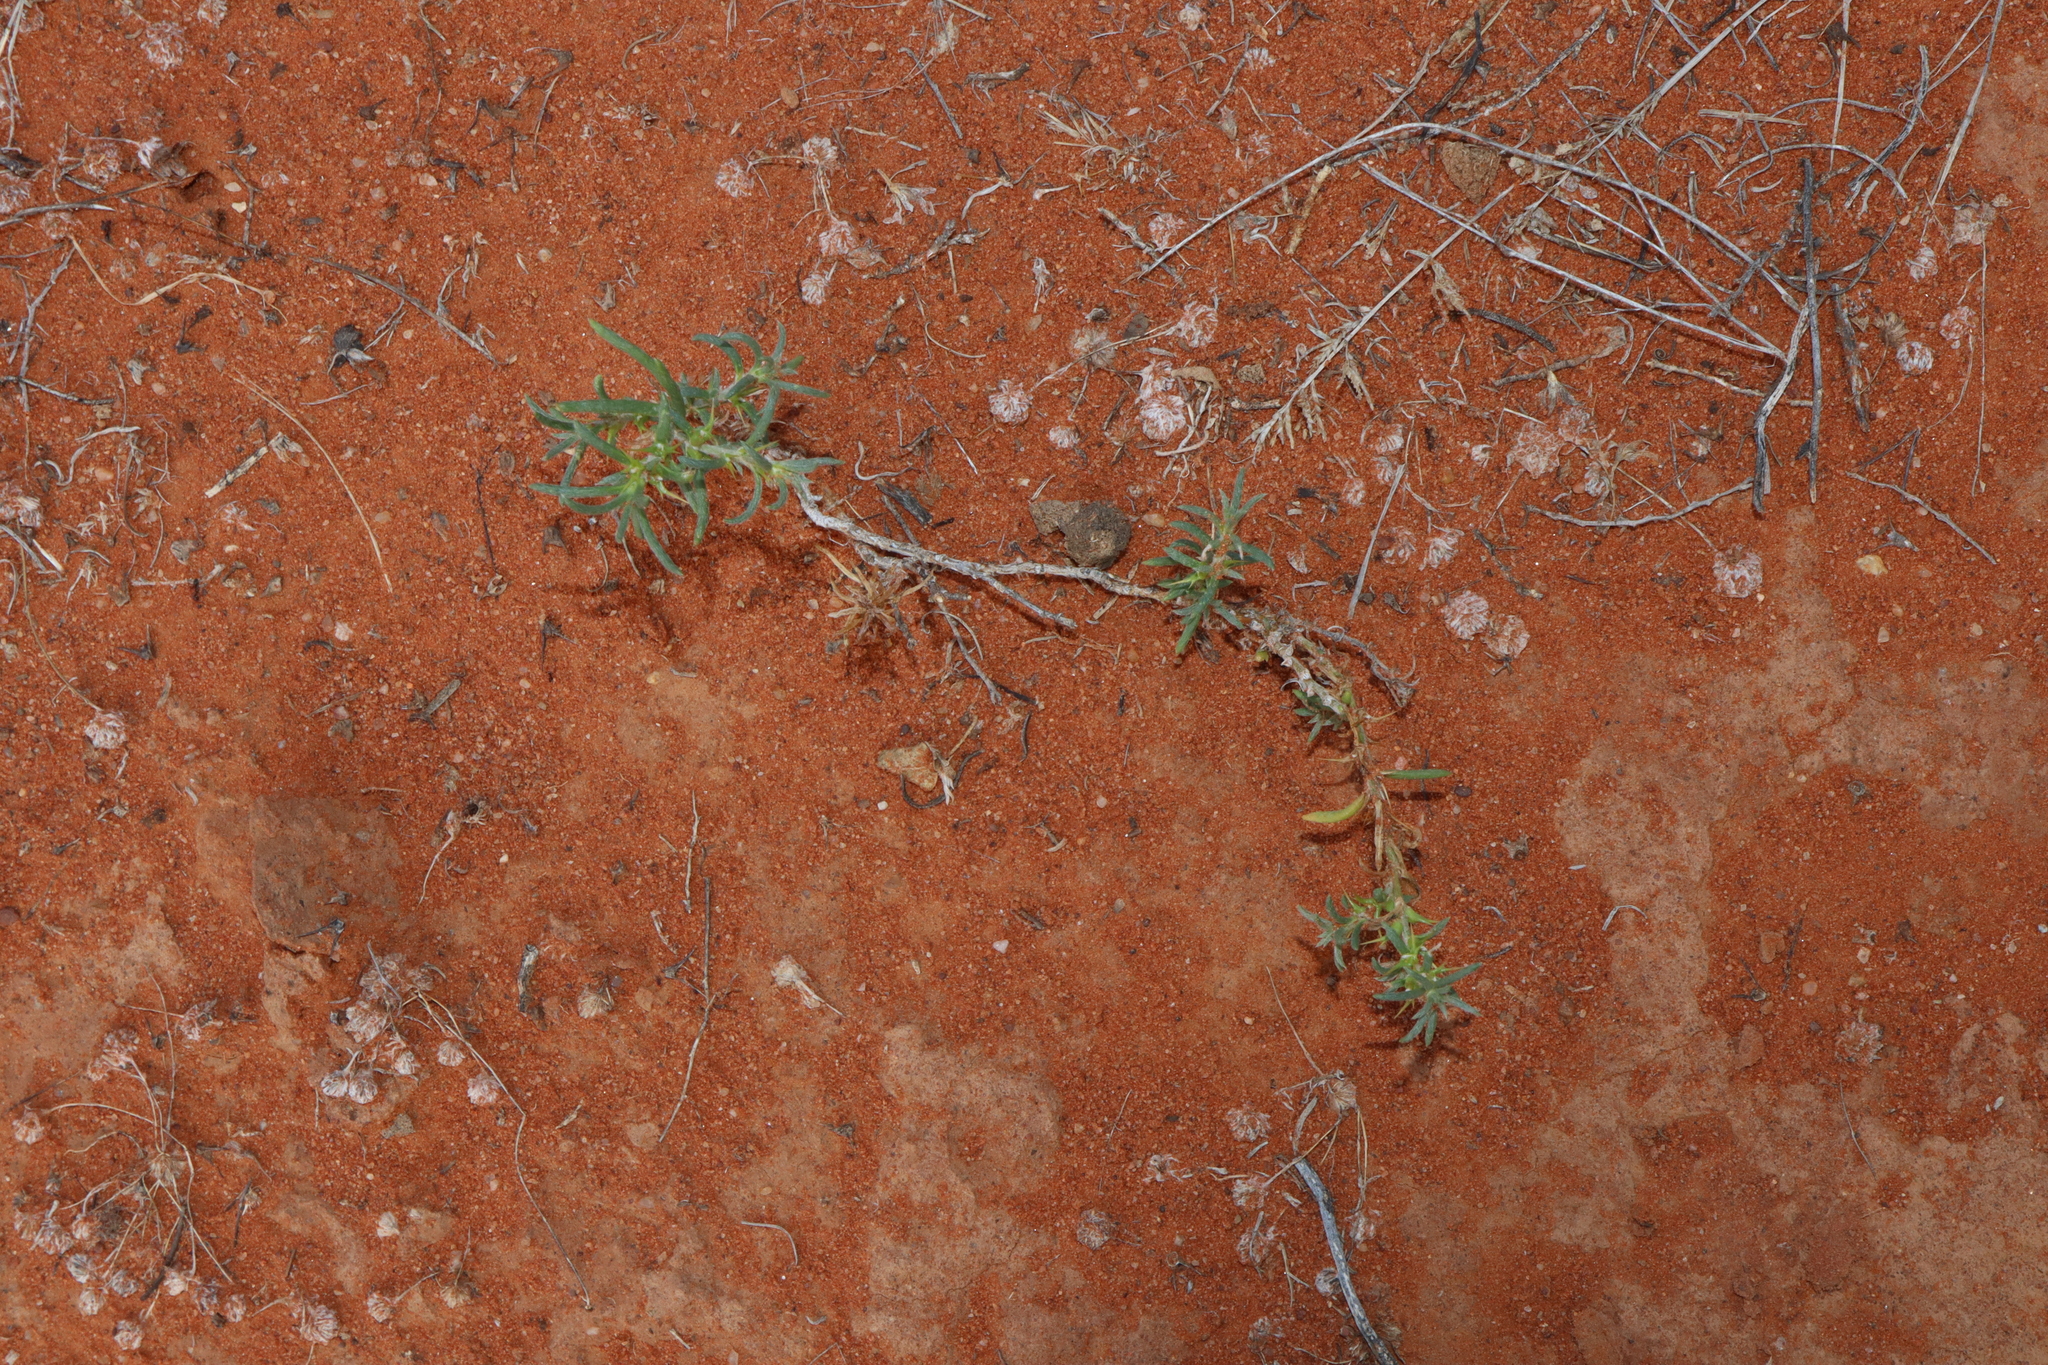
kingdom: Plantae
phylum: Tracheophyta
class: Magnoliopsida
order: Caryophyllales
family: Amaranthaceae
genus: Sclerolaena
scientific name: Sclerolaena decurrens
